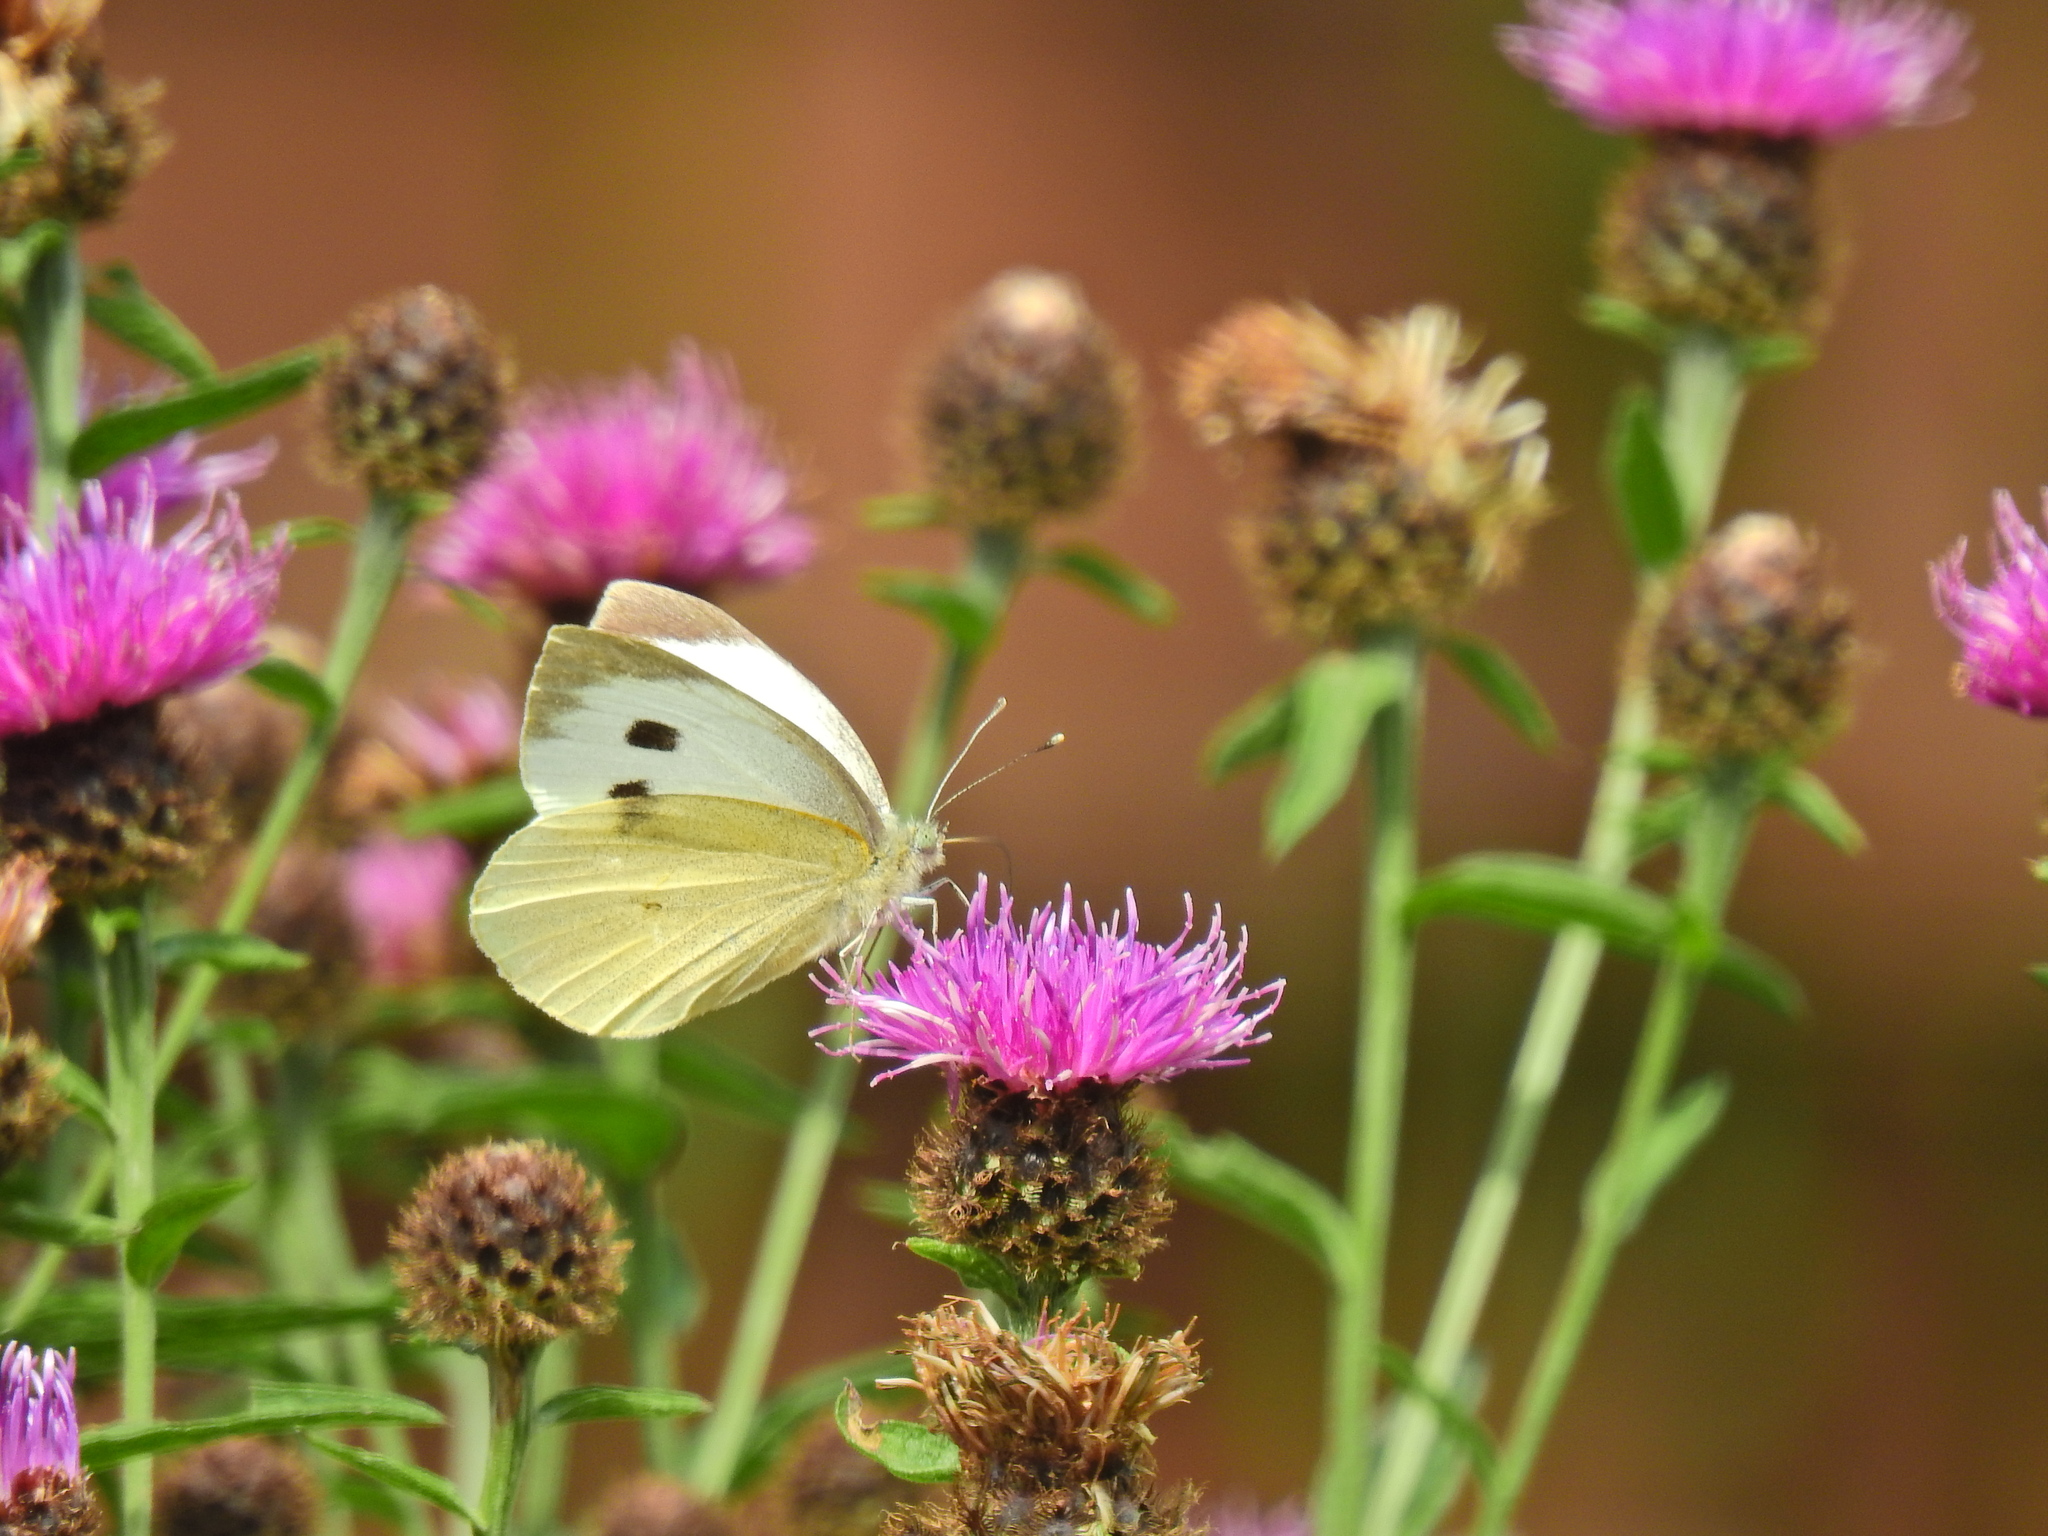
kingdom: Animalia
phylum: Arthropoda
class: Insecta
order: Lepidoptera
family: Pieridae
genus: Pieris
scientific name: Pieris brassicae
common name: Large white
